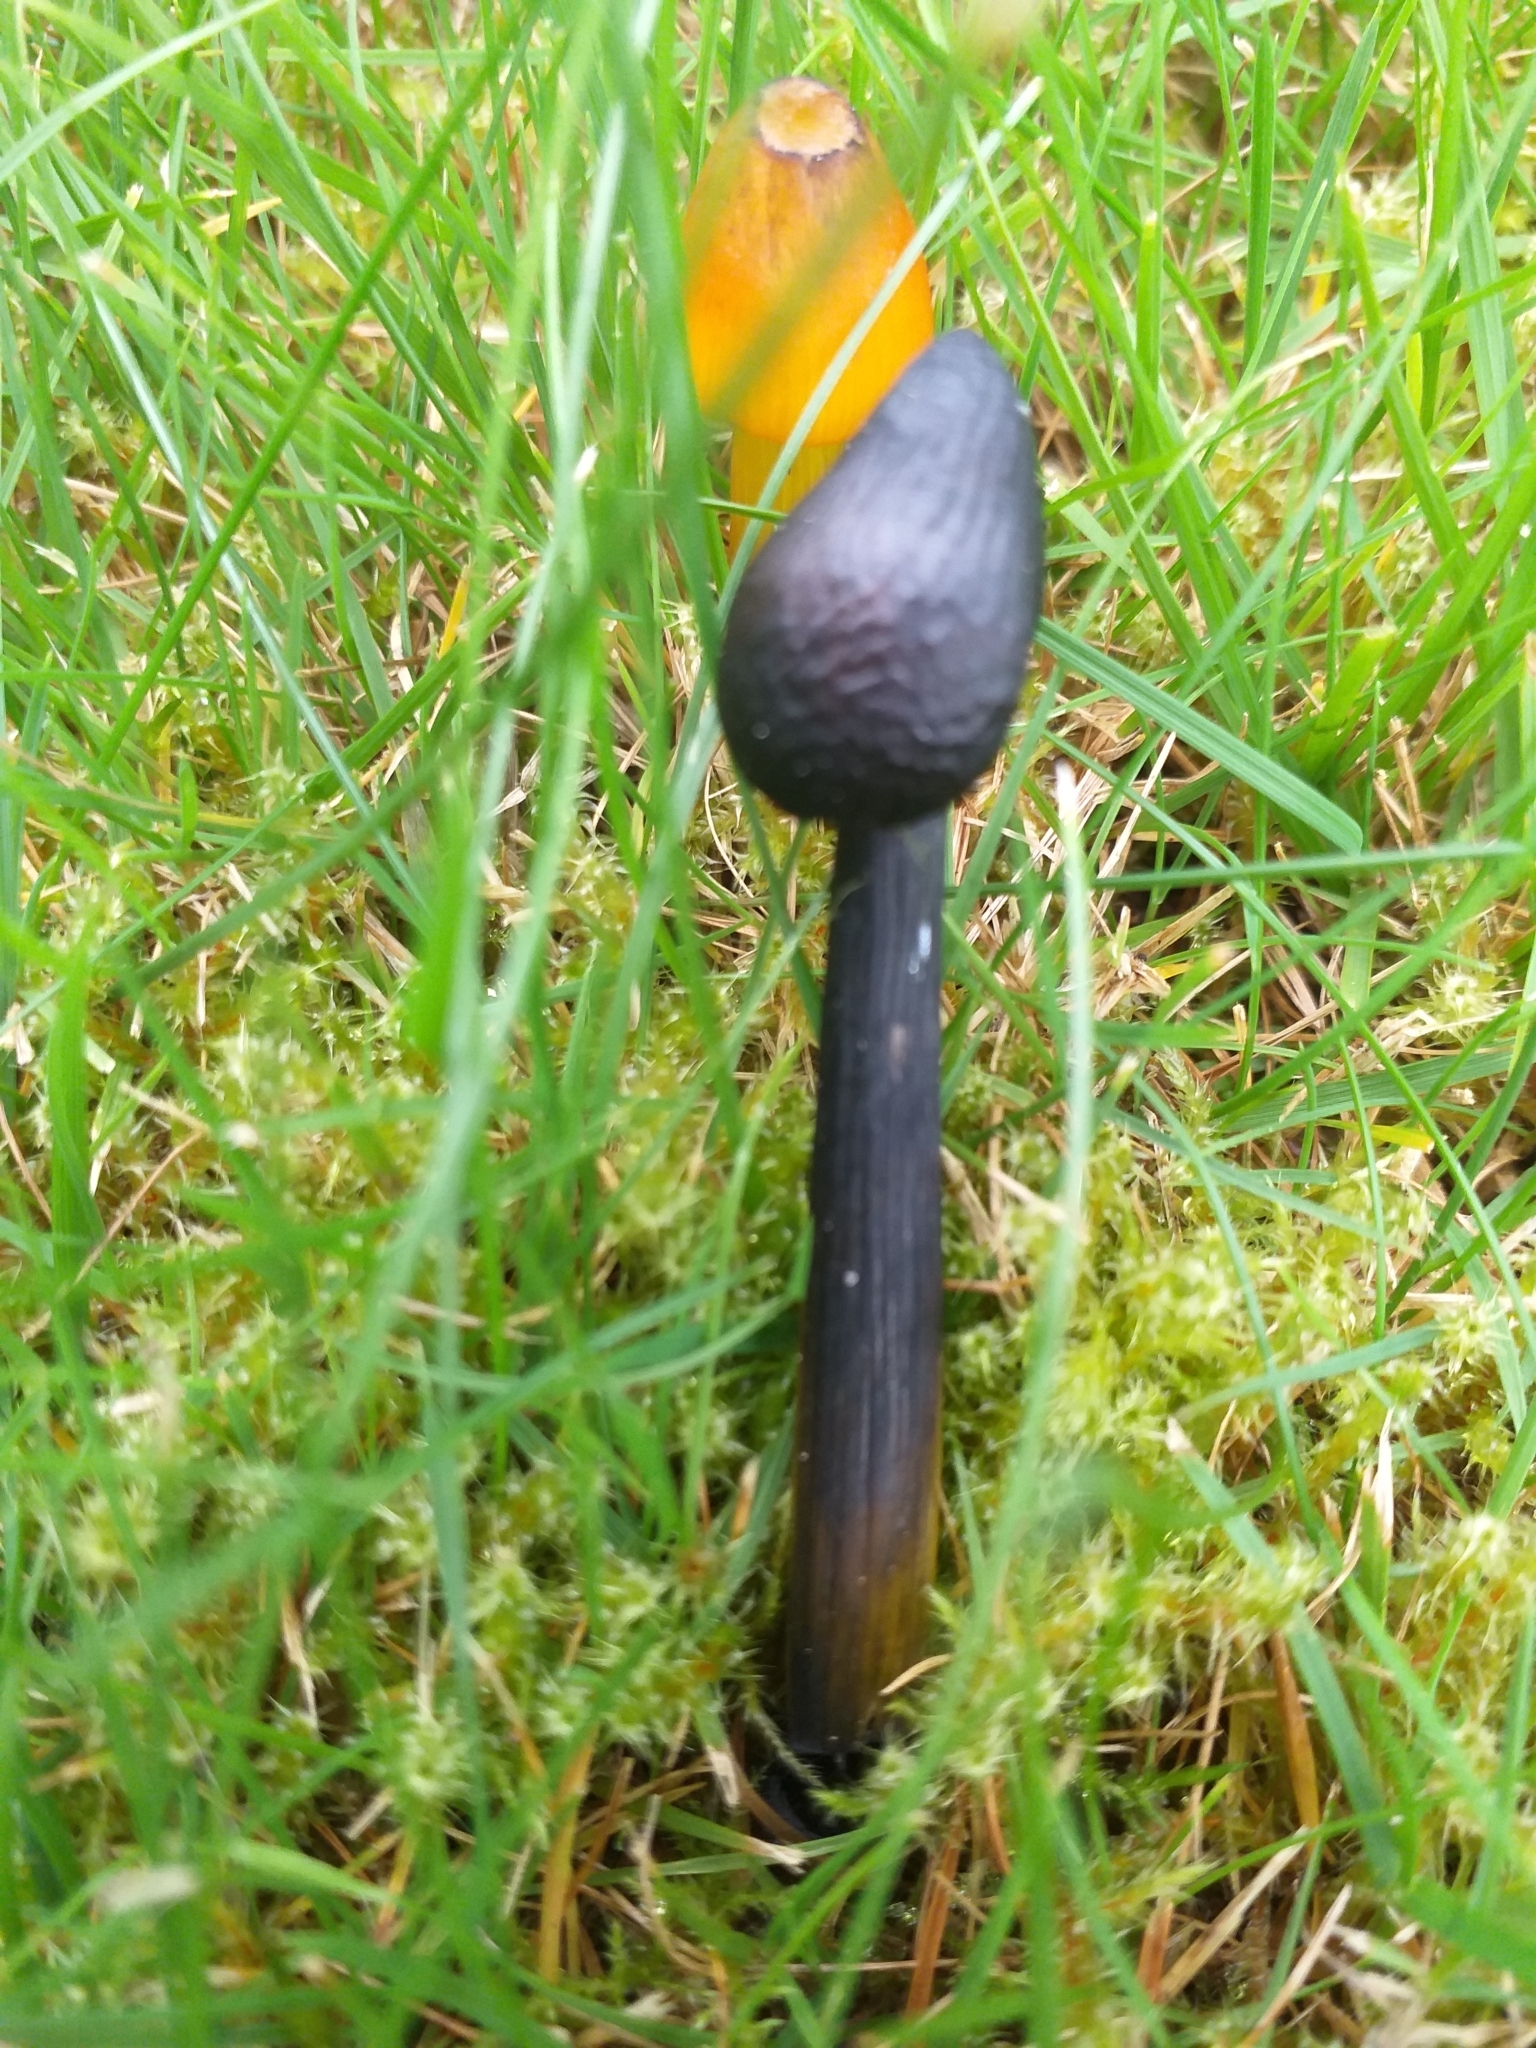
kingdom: Fungi
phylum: Basidiomycota
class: Agaricomycetes
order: Agaricales
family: Hygrophoraceae
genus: Hygrocybe
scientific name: Hygrocybe conica
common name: Blackening wax-cap
